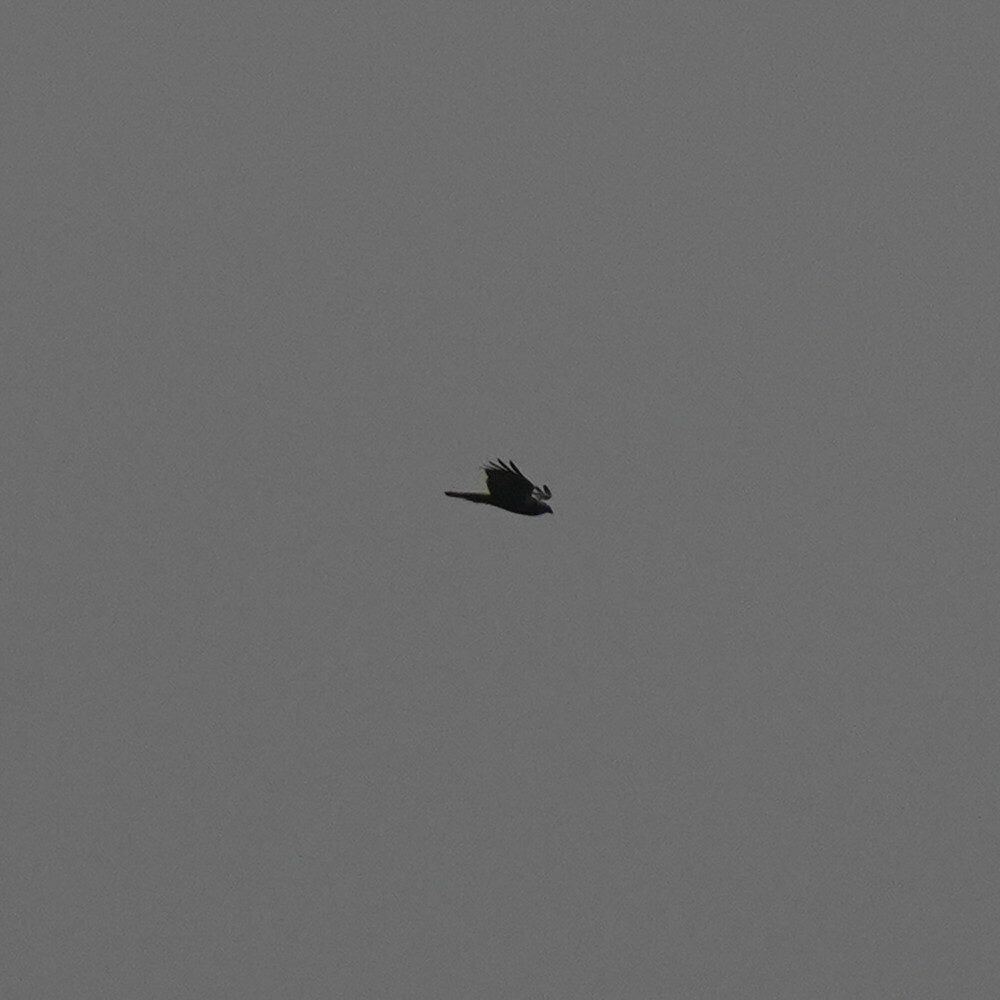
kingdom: Animalia
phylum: Chordata
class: Aves
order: Accipitriformes
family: Accipitridae
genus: Circus
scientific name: Circus aeruginosus
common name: Western marsh harrier
